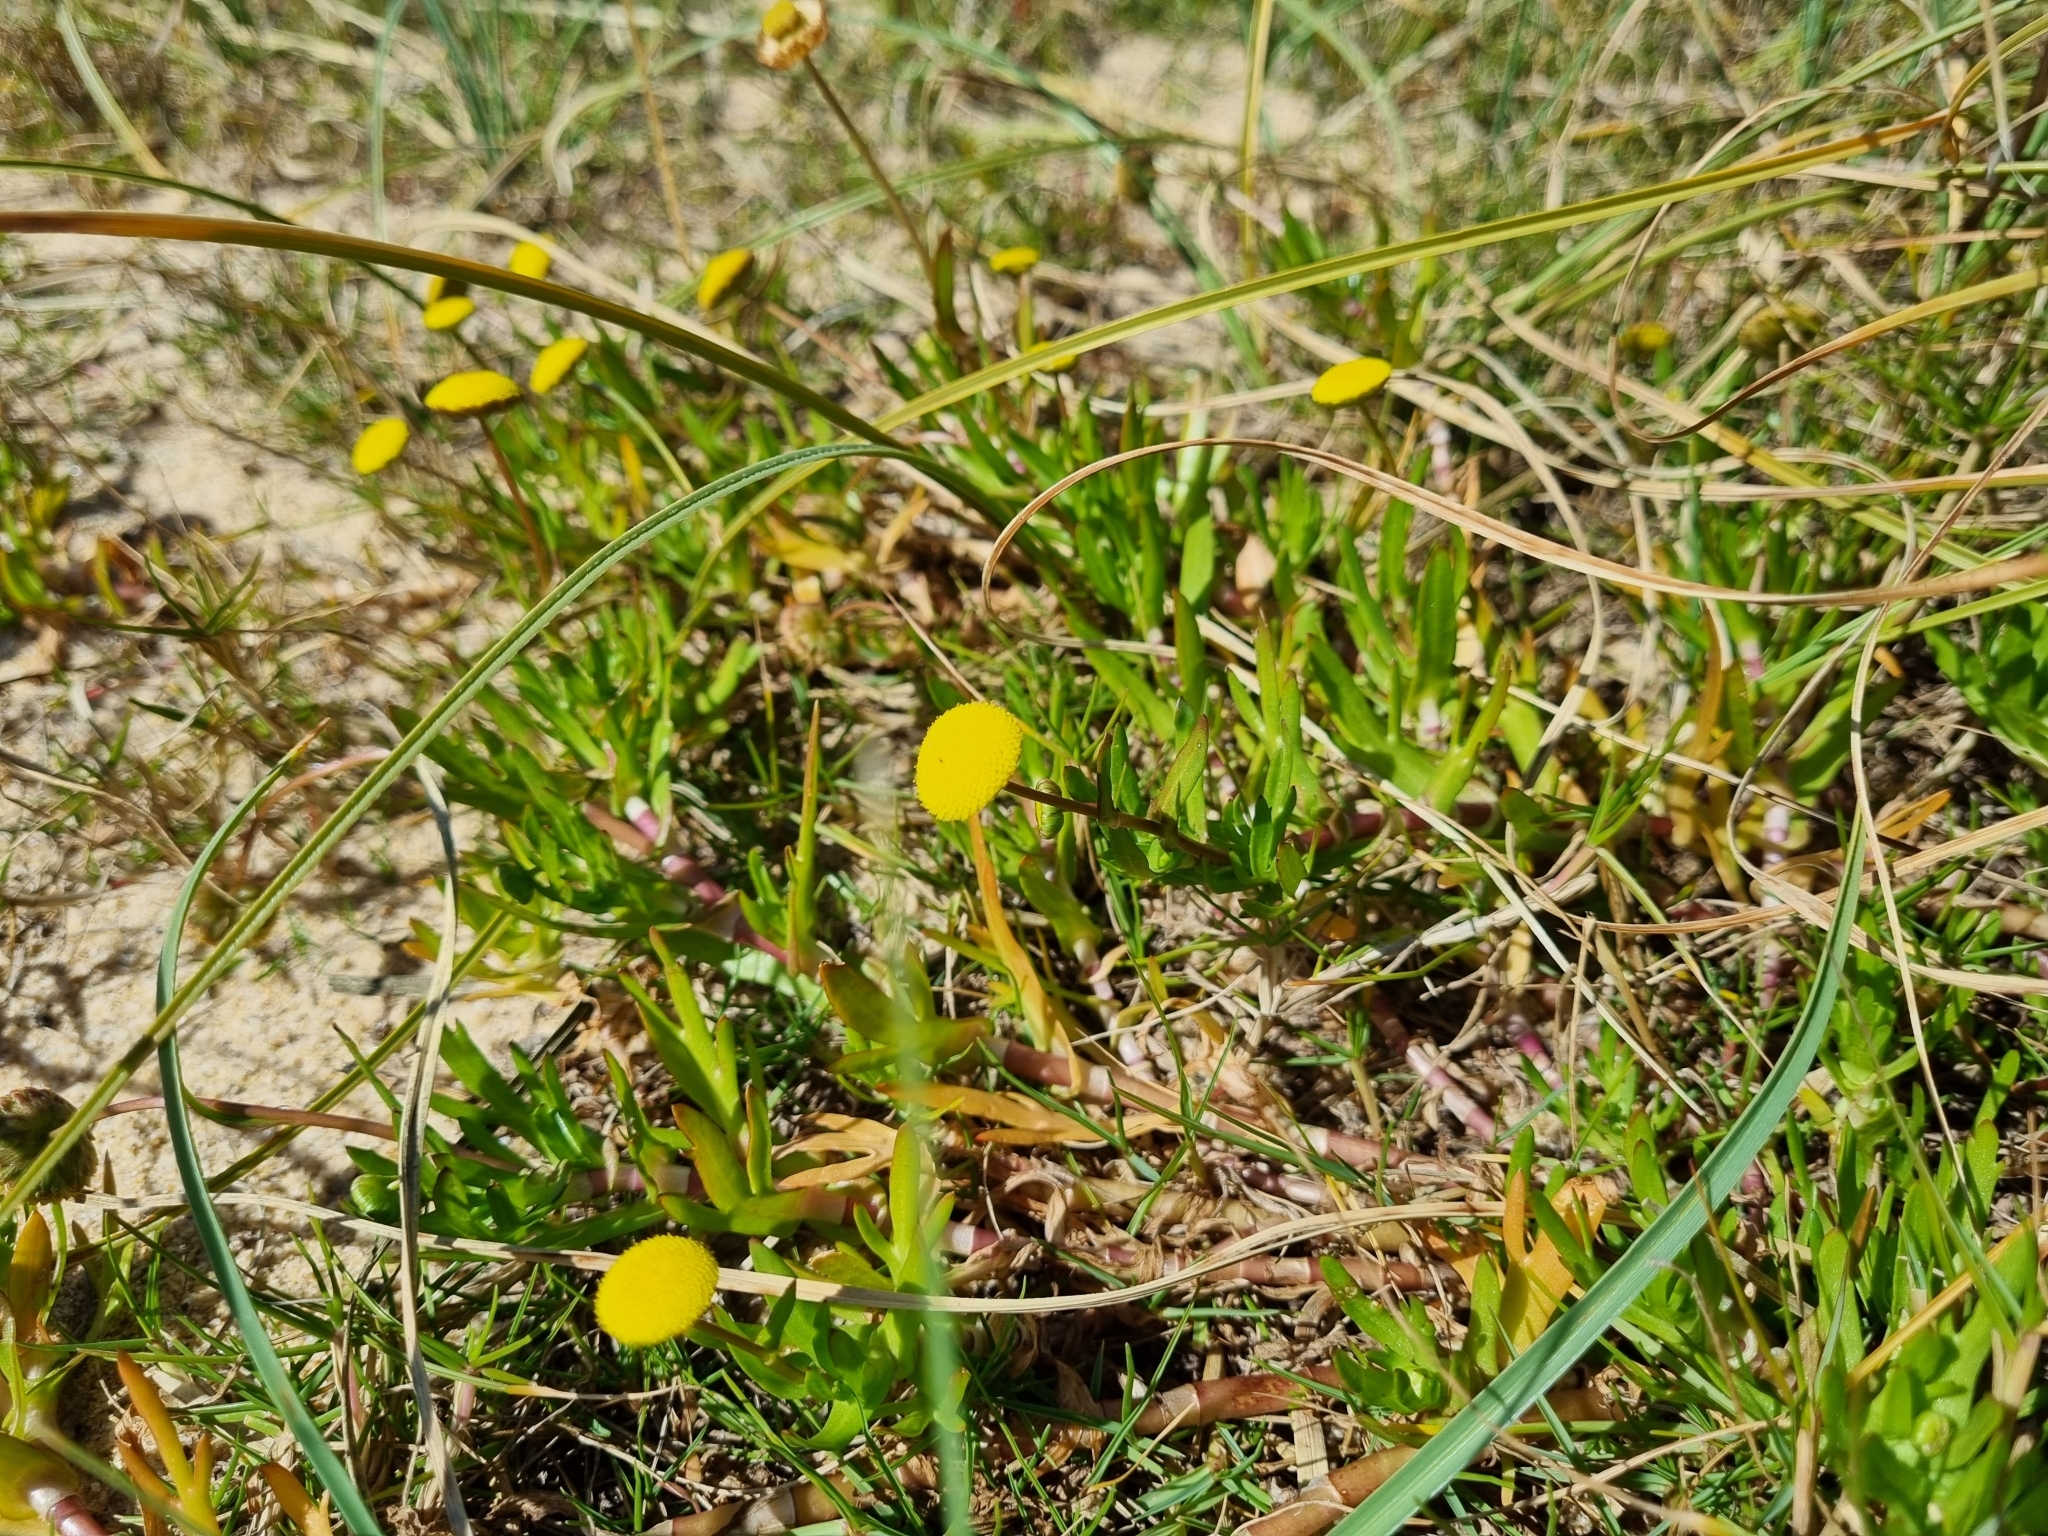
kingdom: Plantae
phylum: Tracheophyta
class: Magnoliopsida
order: Asterales
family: Asteraceae
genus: Cotula
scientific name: Cotula coronopifolia
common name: Buttonweed
